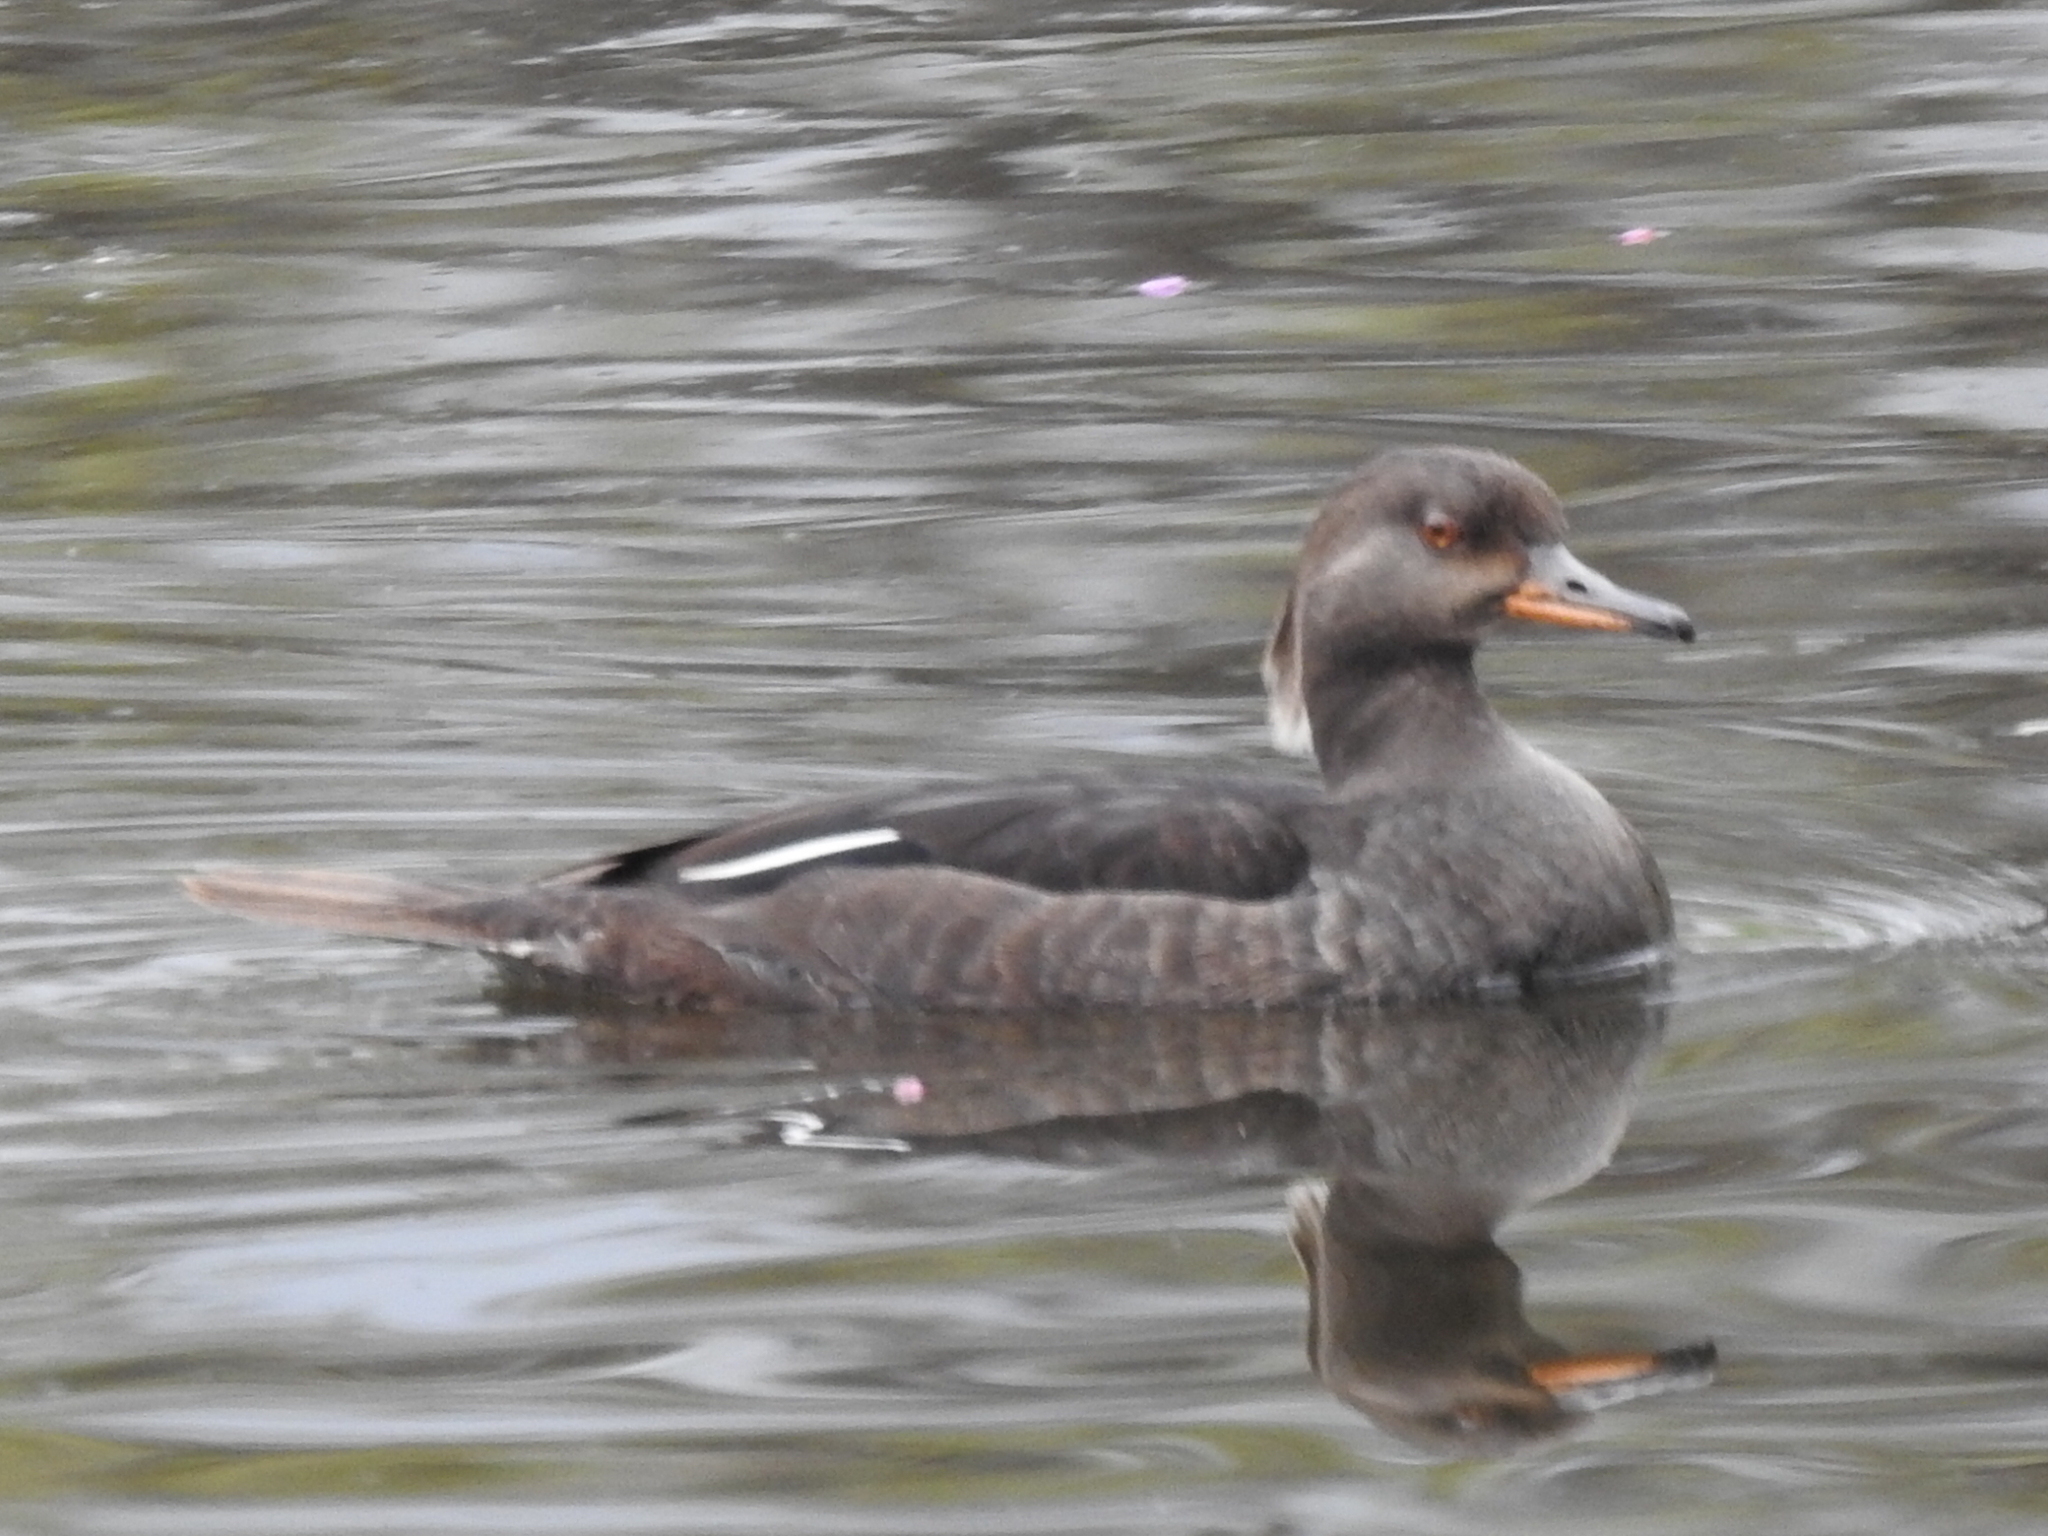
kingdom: Animalia
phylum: Chordata
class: Aves
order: Anseriformes
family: Anatidae
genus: Lophodytes
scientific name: Lophodytes cucullatus
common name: Hooded merganser
